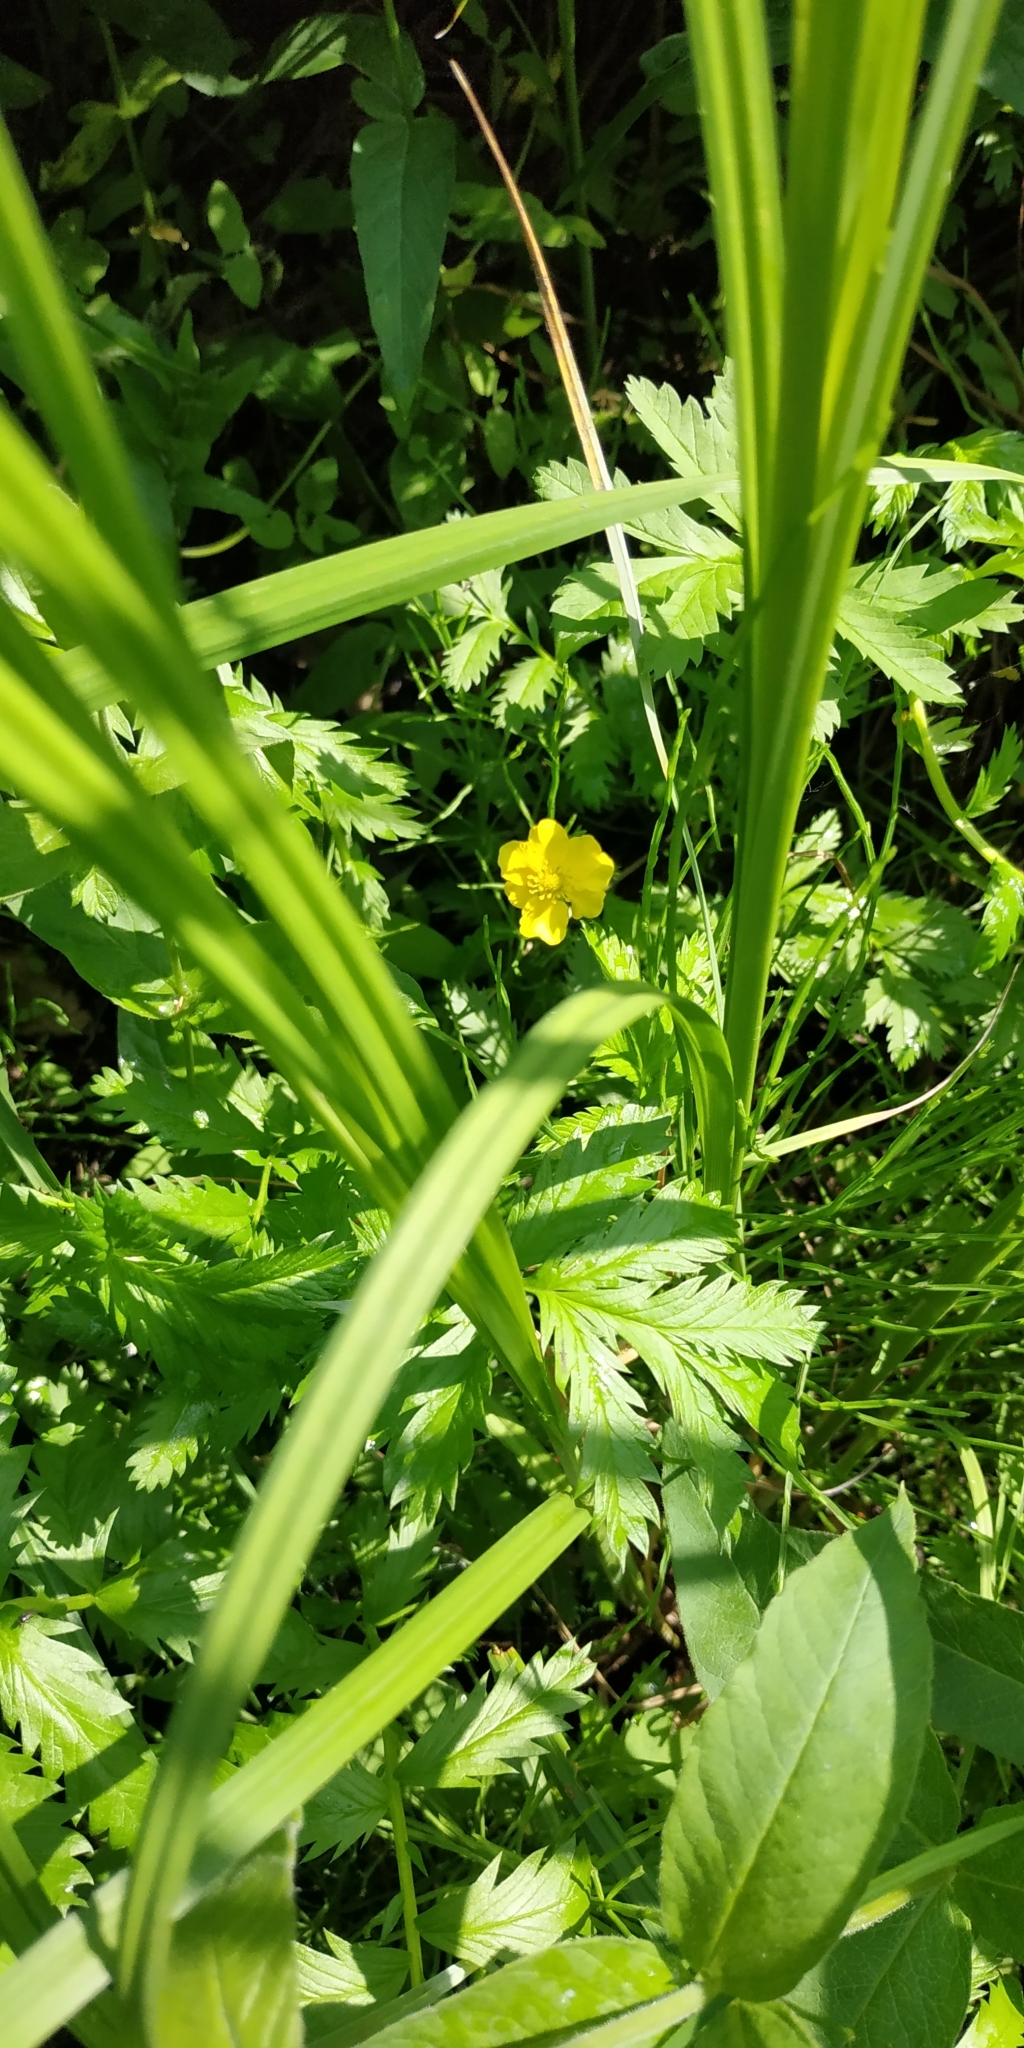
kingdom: Plantae
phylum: Tracheophyta
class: Magnoliopsida
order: Rosales
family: Rosaceae
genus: Argentina
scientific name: Argentina anserina
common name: Common silverweed
